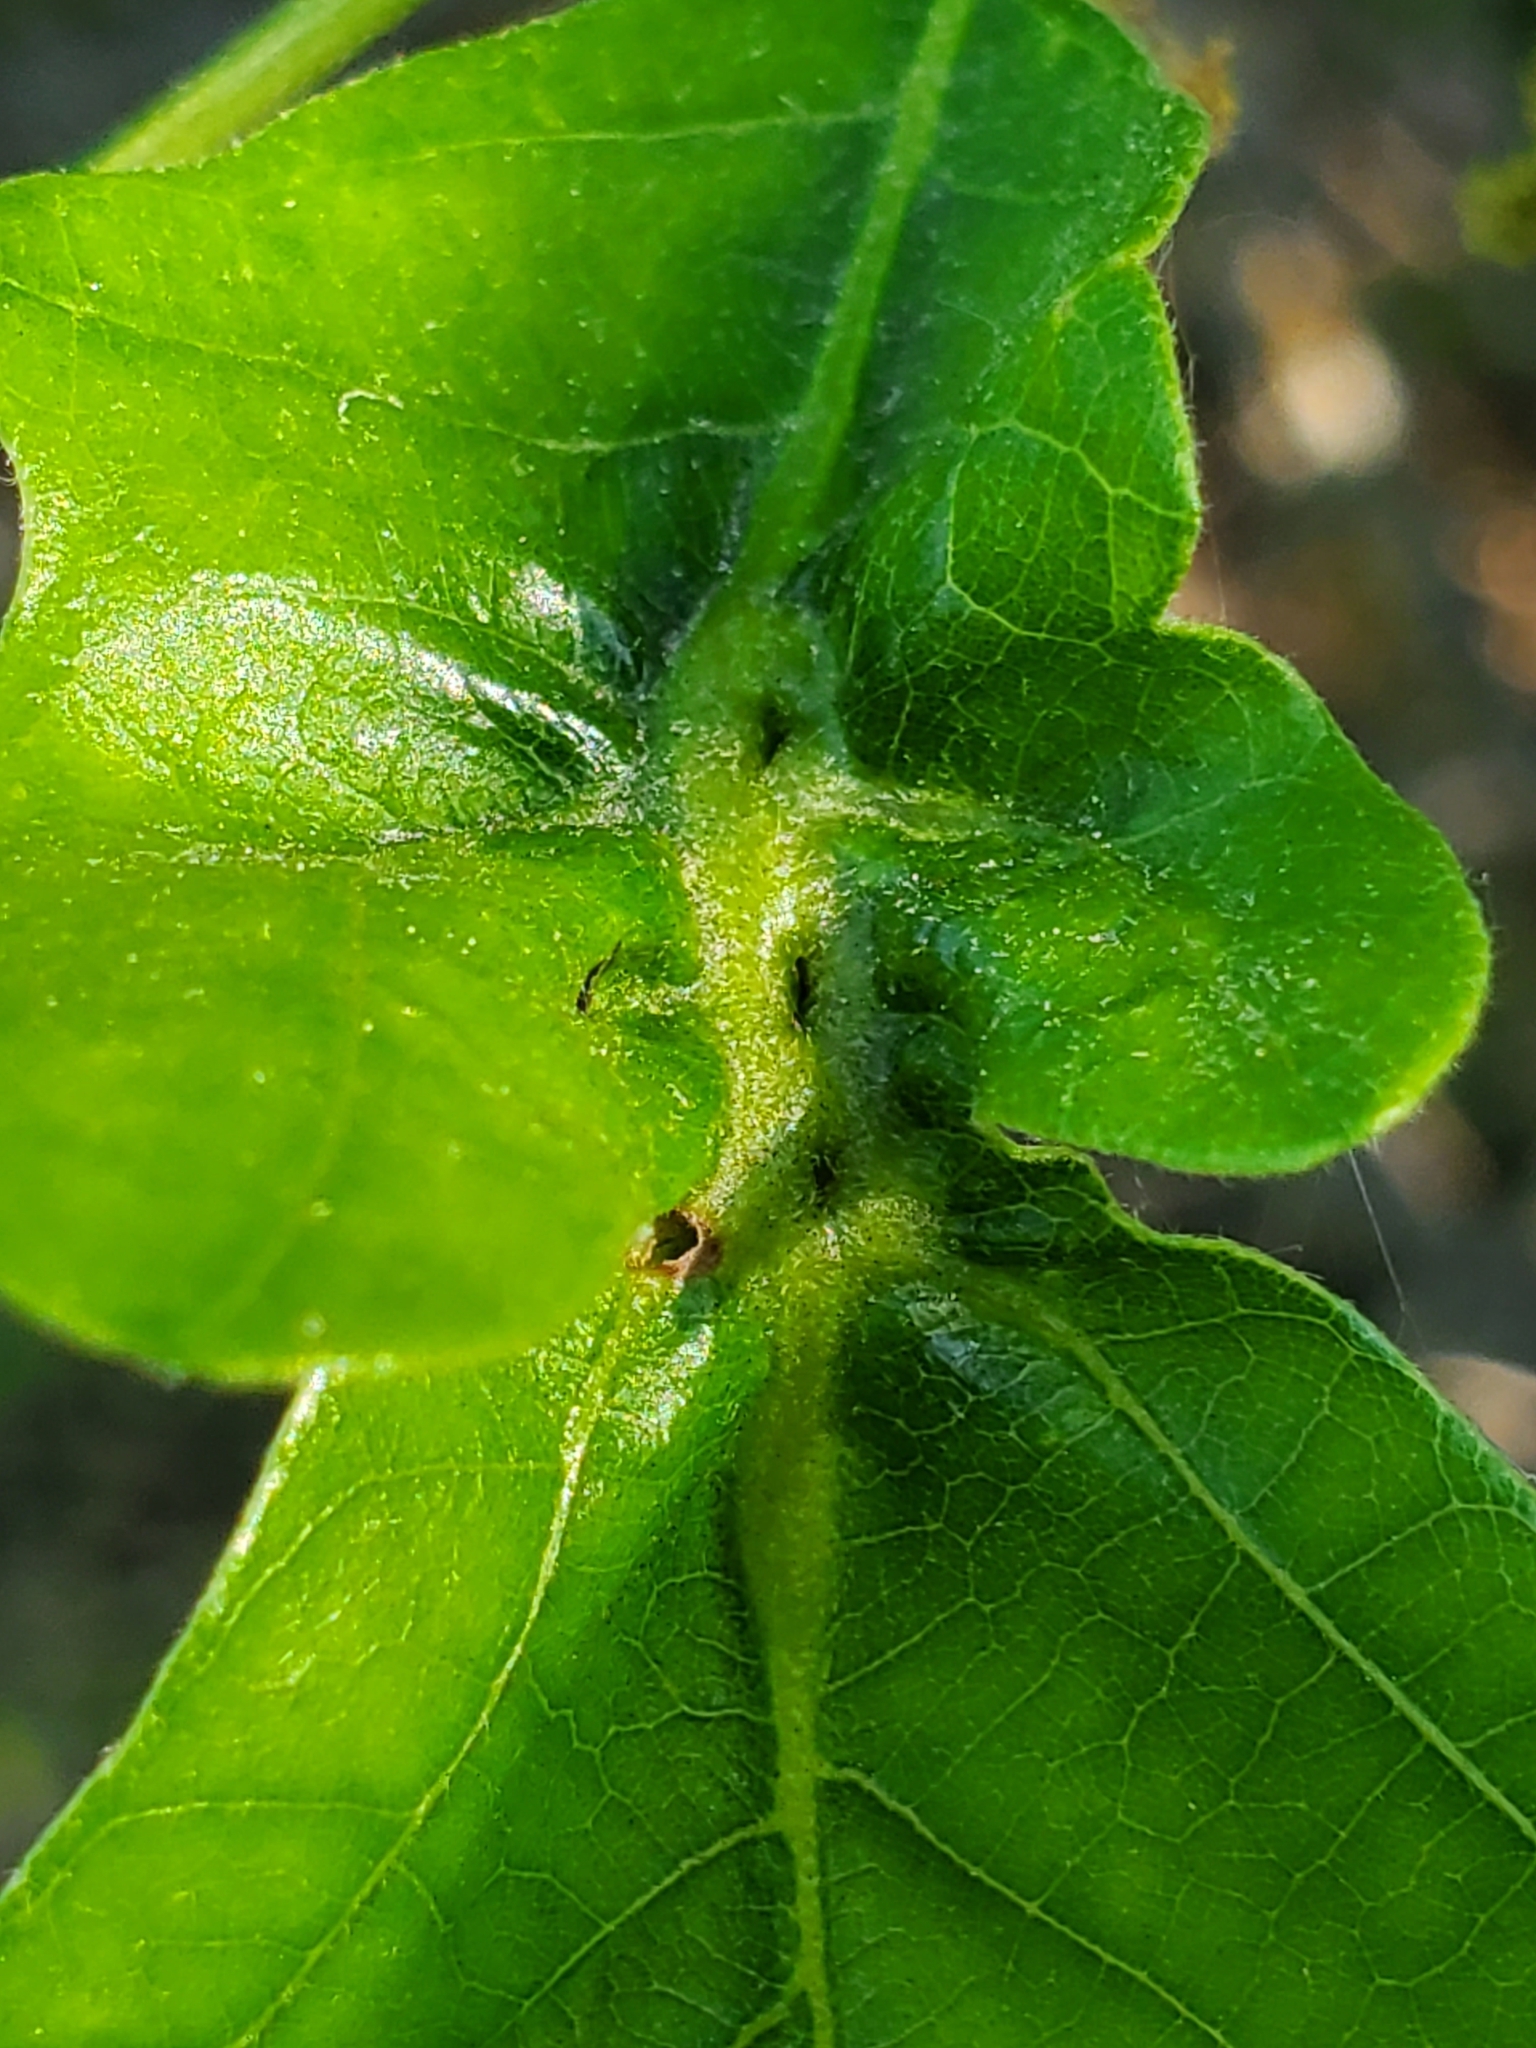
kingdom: Animalia
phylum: Arthropoda
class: Insecta
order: Hymenoptera
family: Cynipidae
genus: Bassettia
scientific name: Bassettia flavipes
